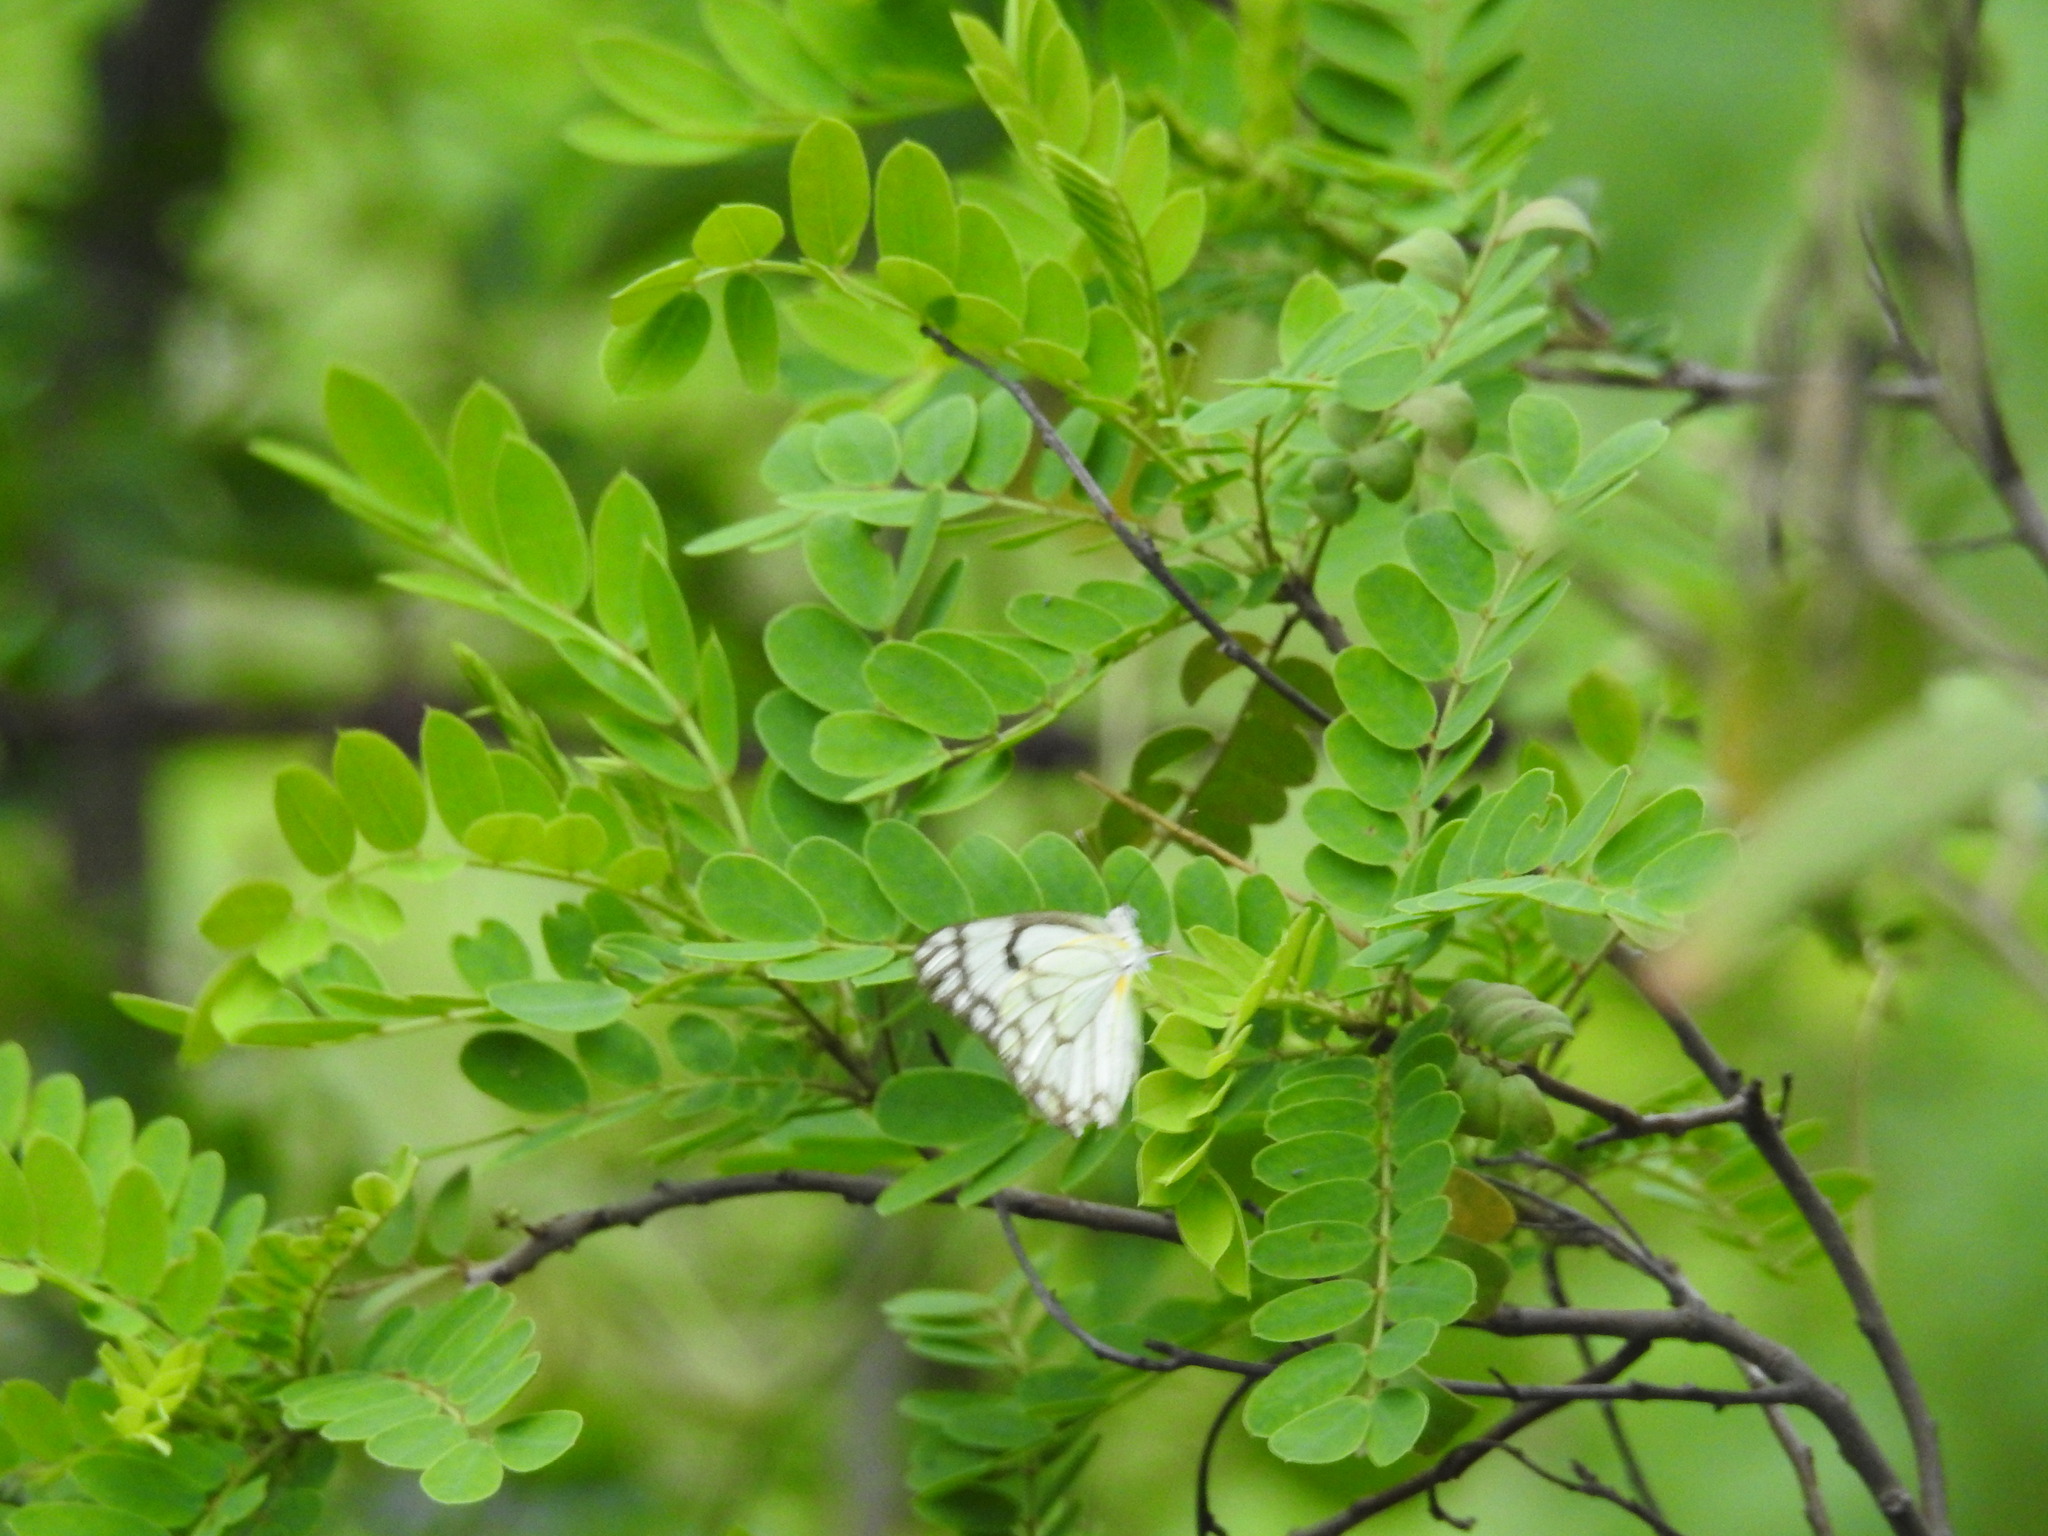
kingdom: Animalia
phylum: Arthropoda
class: Insecta
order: Lepidoptera
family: Pieridae
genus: Belenois
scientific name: Belenois aurota
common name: Brown-veined white
